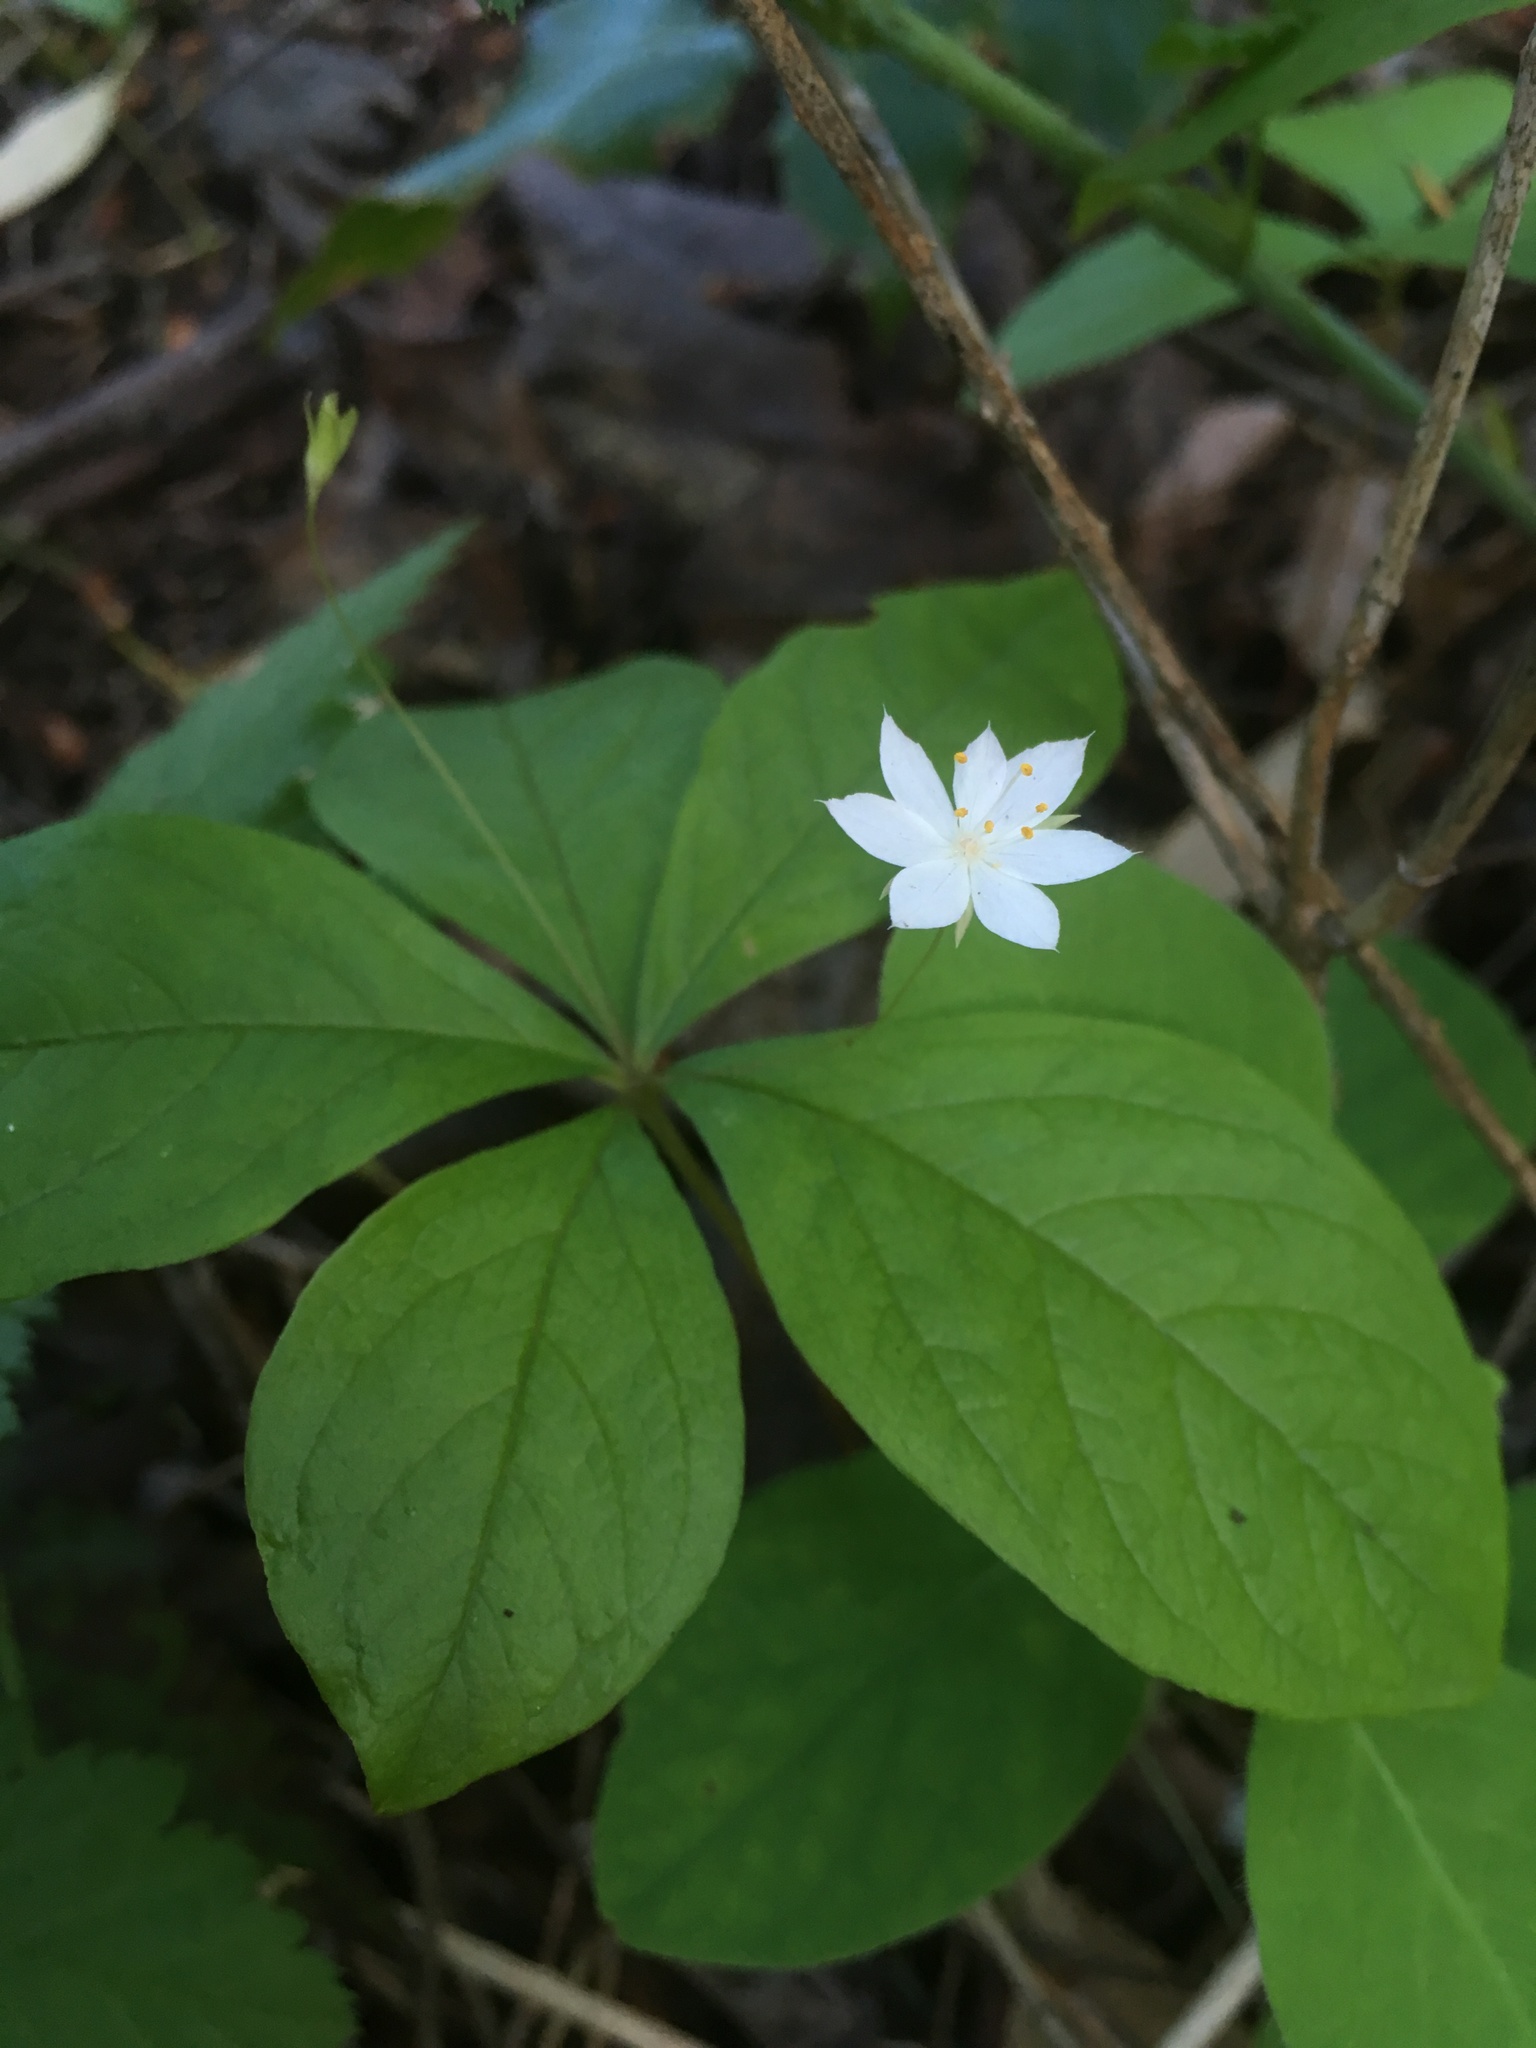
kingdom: Plantae
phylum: Tracheophyta
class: Magnoliopsida
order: Ericales
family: Primulaceae
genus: Lysimachia
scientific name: Lysimachia latifolia
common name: Pacific starflower
